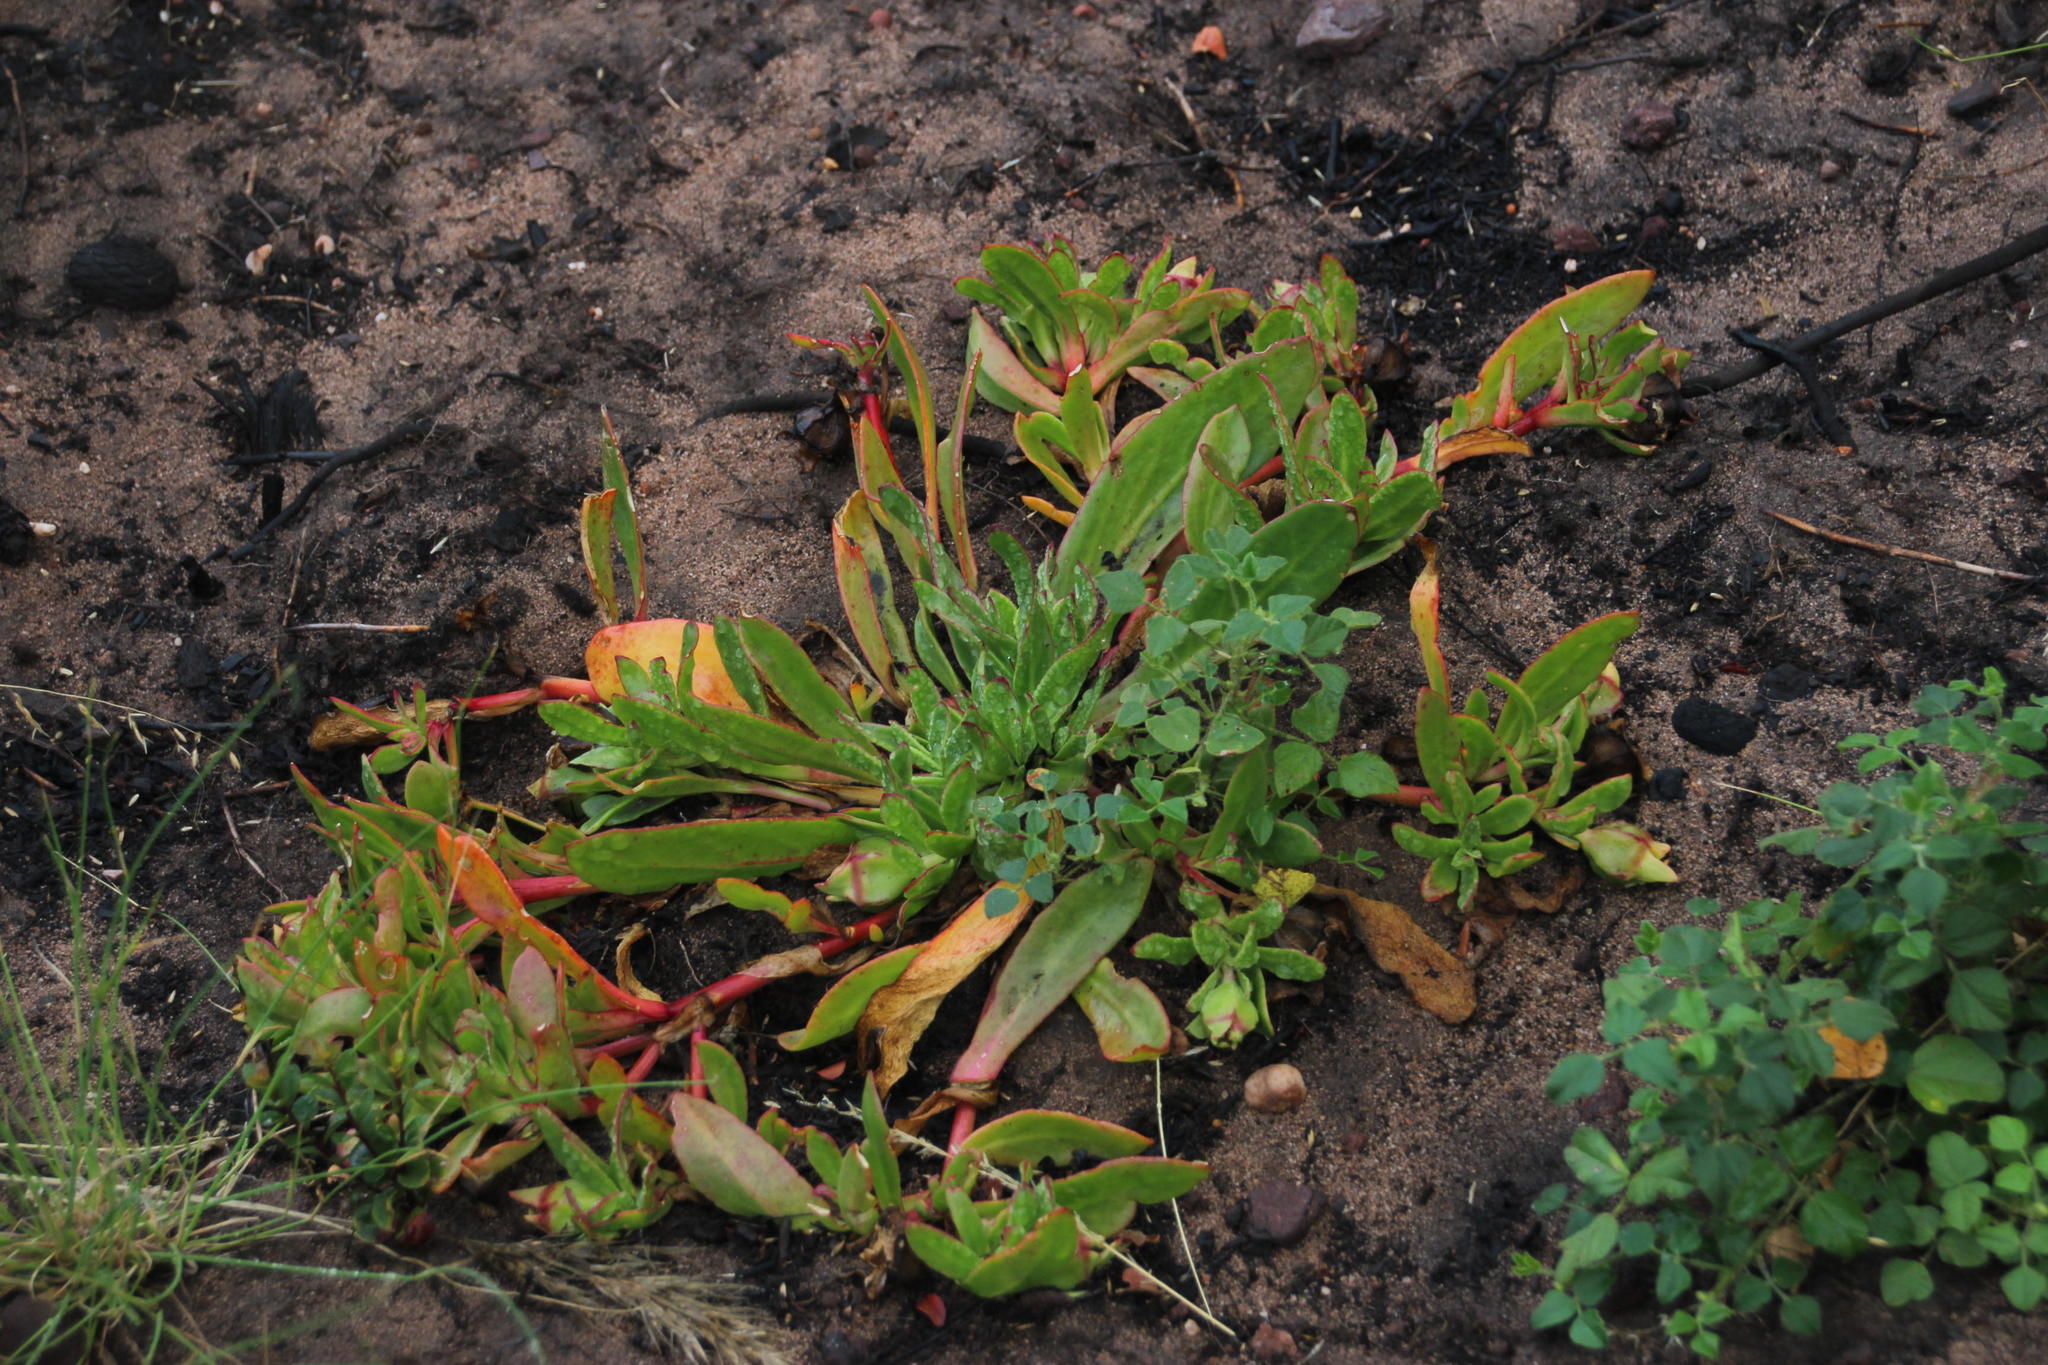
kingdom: Plantae
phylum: Tracheophyta
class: Magnoliopsida
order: Caryophyllales
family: Aizoaceae
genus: Skiatophytum
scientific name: Skiatophytum tripolium
